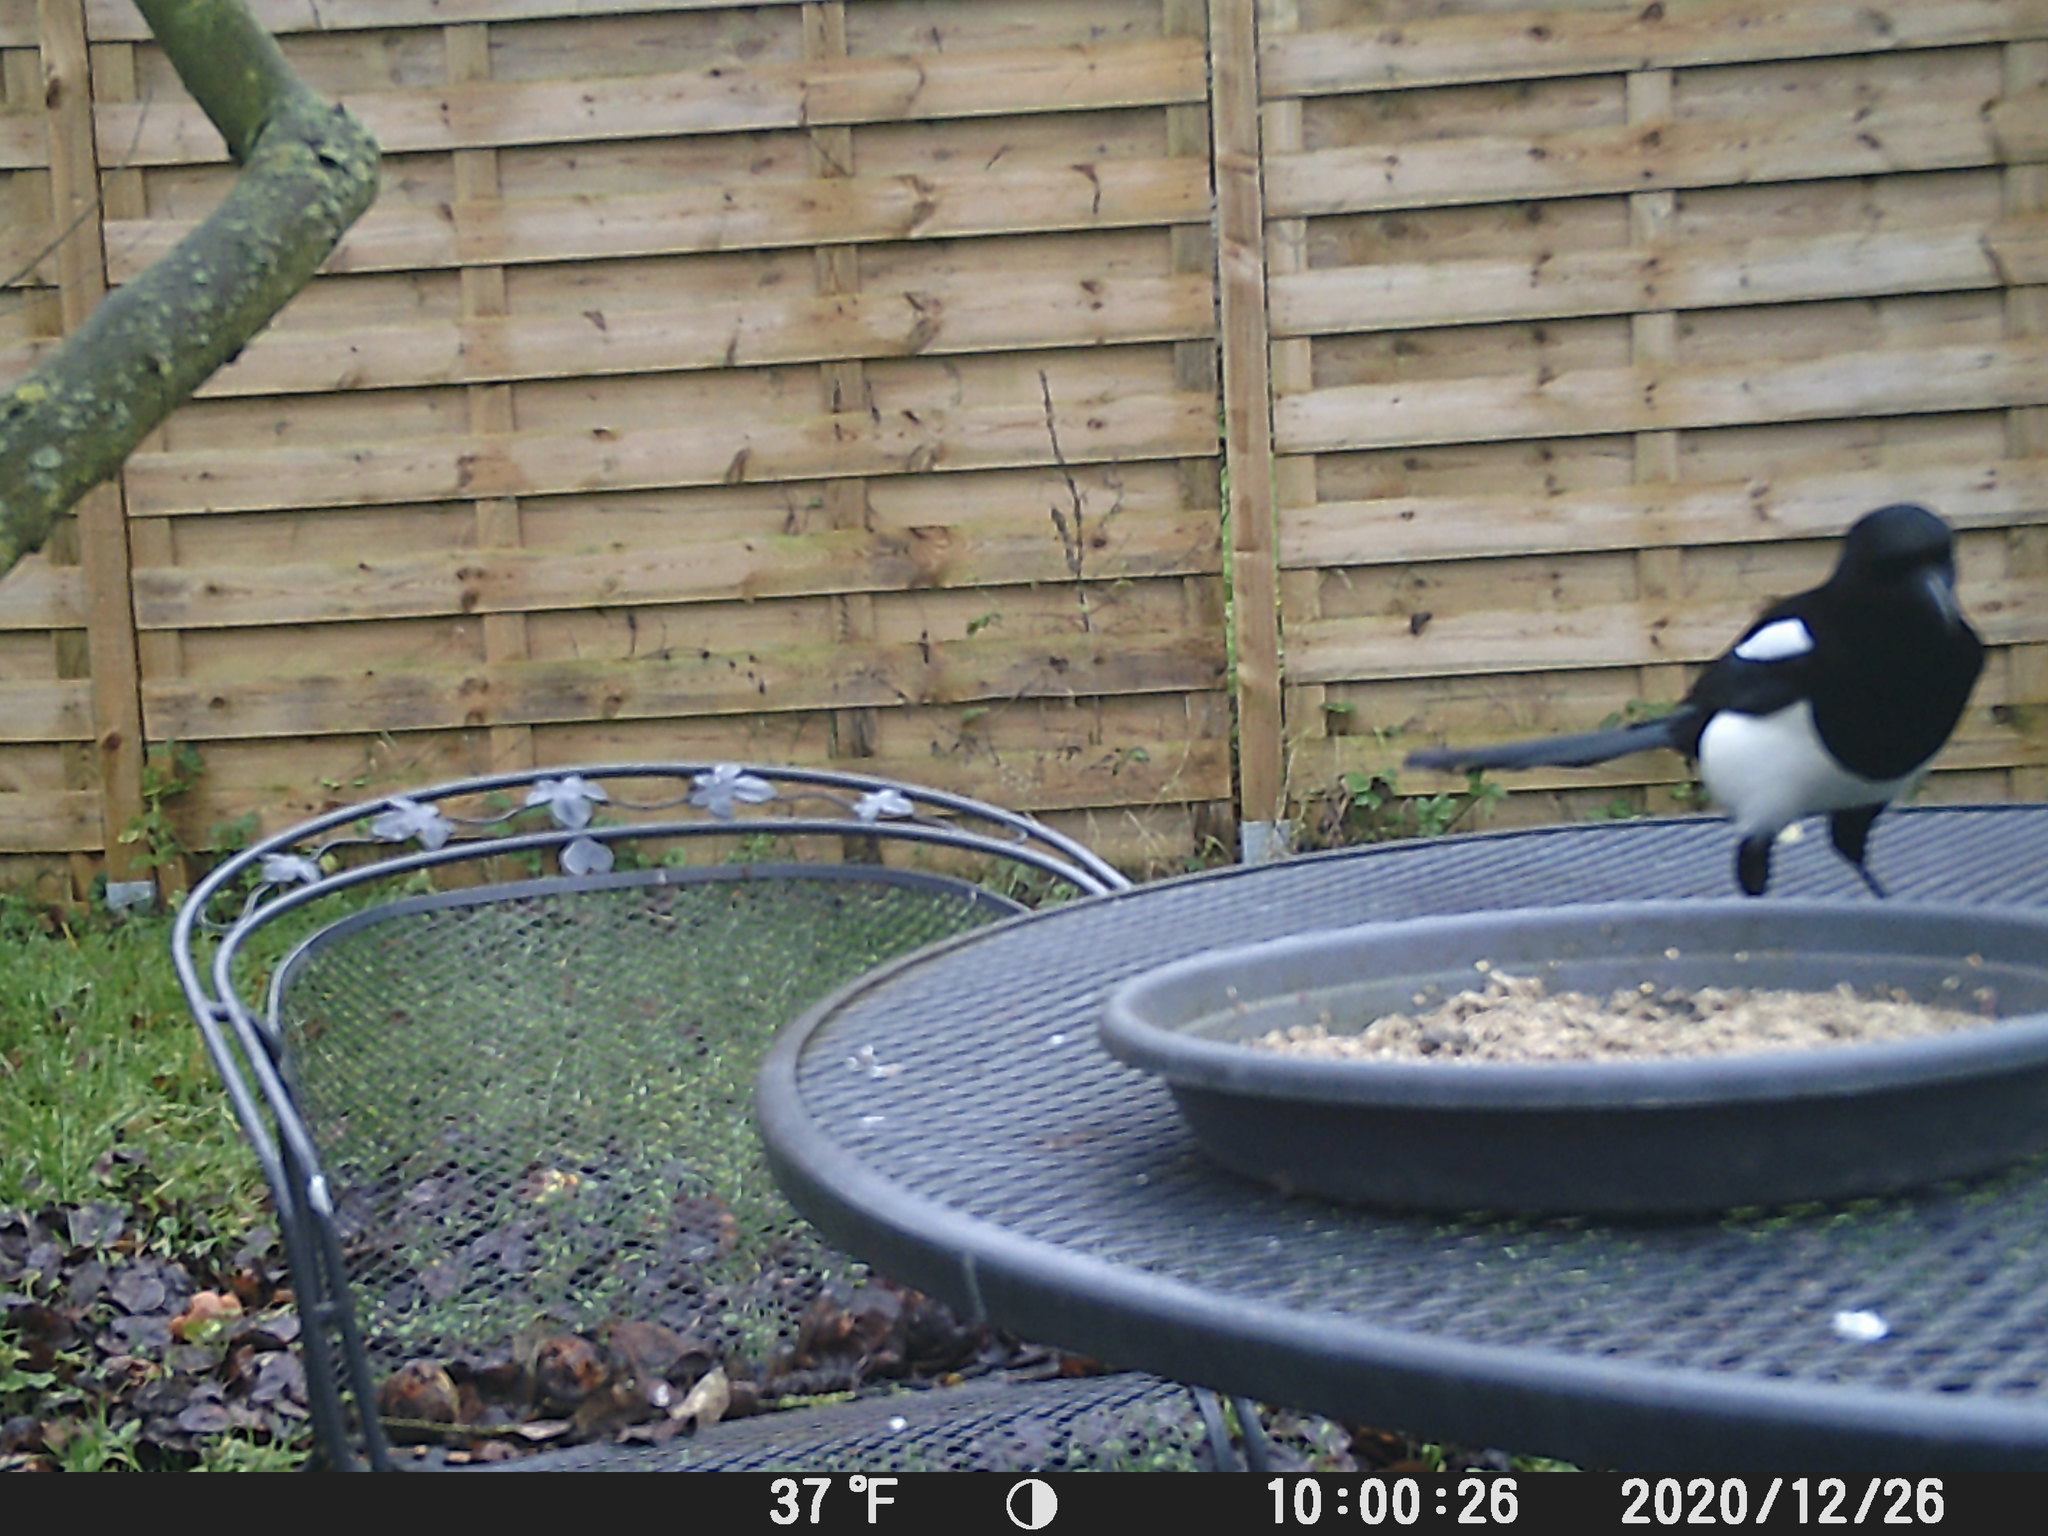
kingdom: Animalia
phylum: Chordata
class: Aves
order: Passeriformes
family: Corvidae
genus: Pica
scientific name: Pica pica
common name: Eurasian magpie
